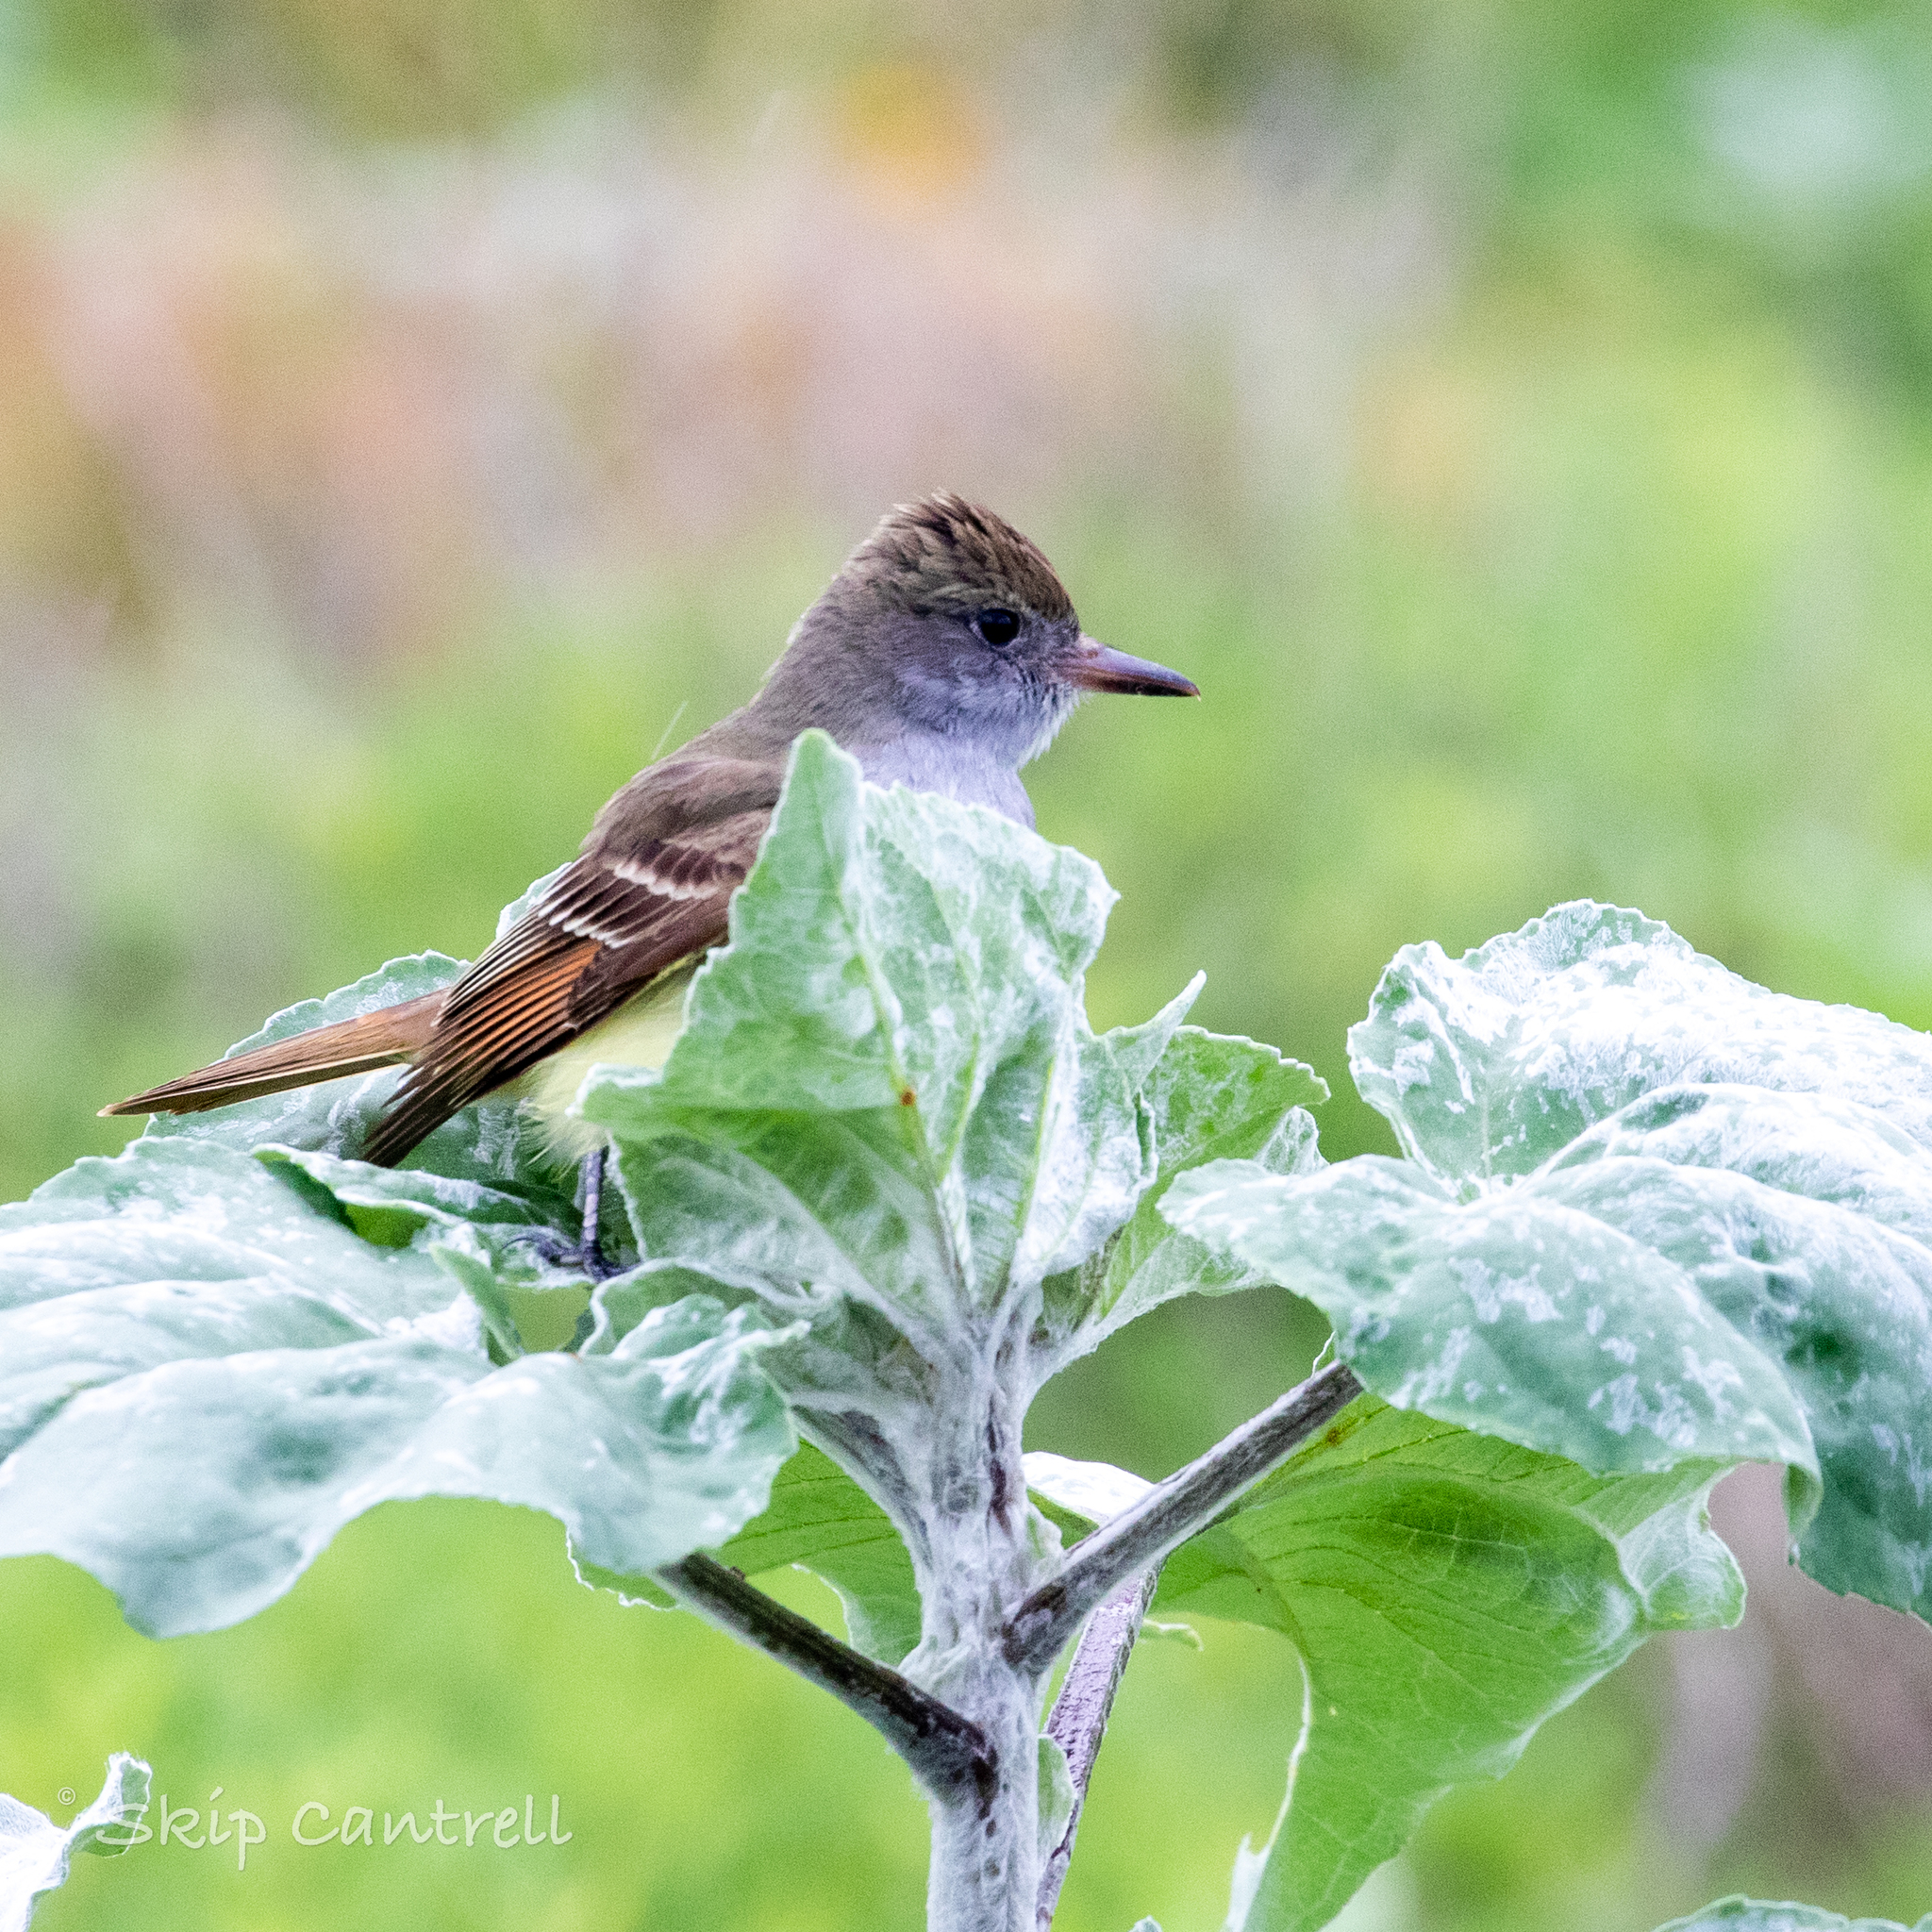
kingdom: Animalia
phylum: Chordata
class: Aves
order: Passeriformes
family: Tyrannidae
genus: Myiarchus
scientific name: Myiarchus crinitus
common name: Great crested flycatcher
